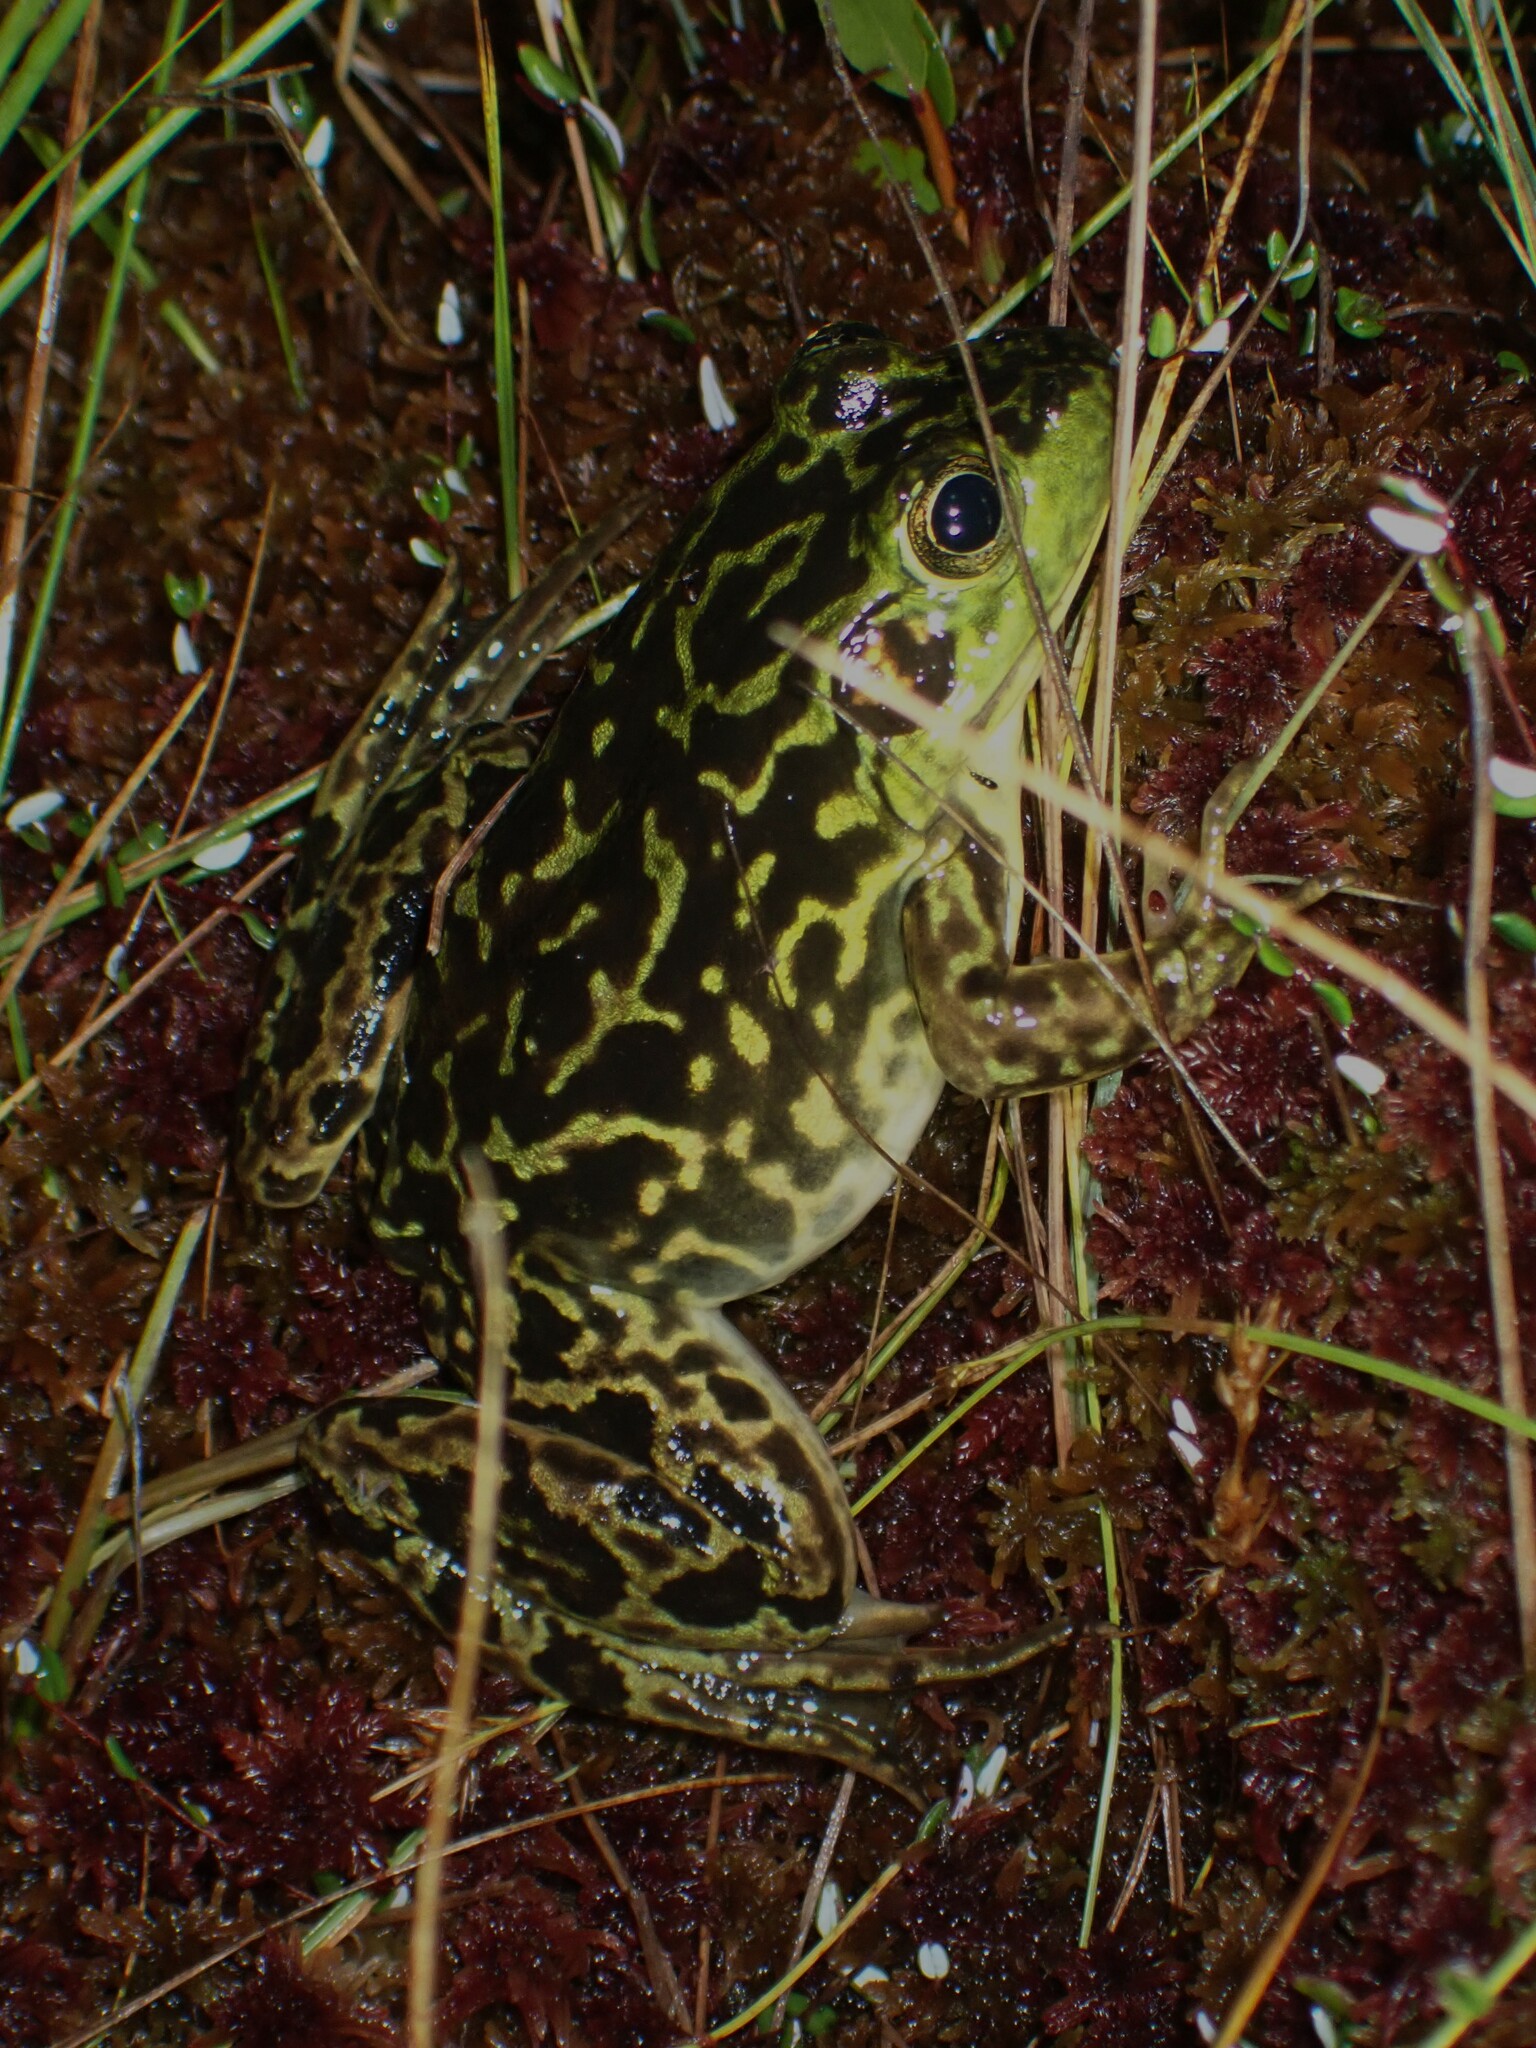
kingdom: Animalia
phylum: Chordata
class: Amphibia
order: Anura
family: Ranidae
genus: Lithobates
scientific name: Lithobates septentrionalis
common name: Mink frog
